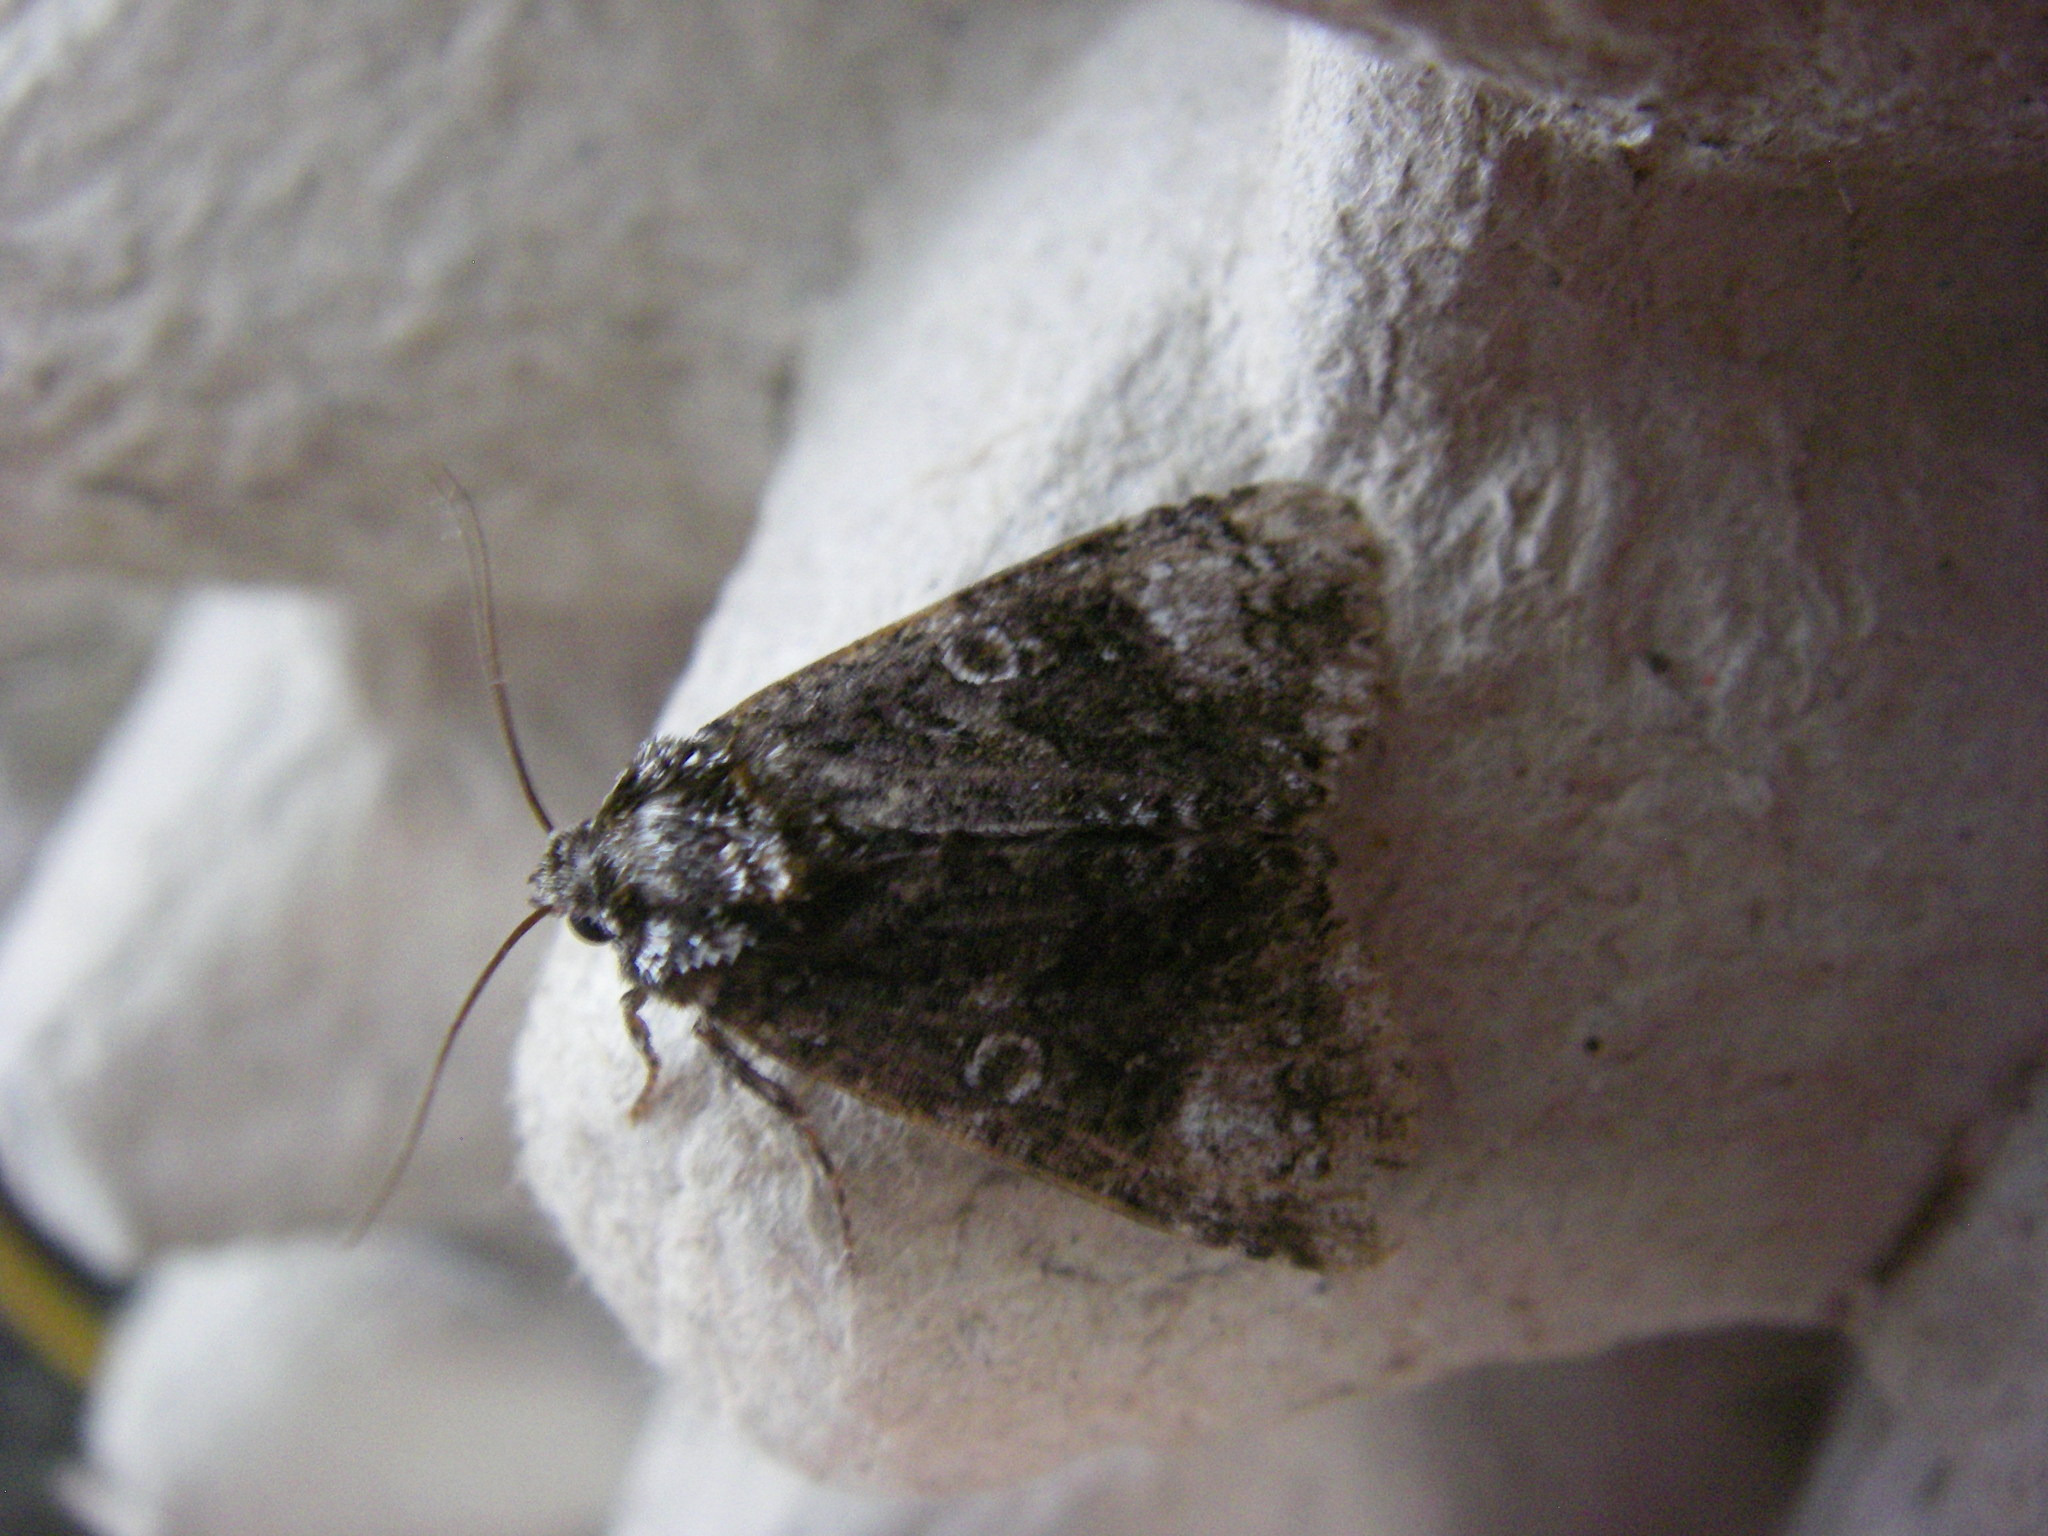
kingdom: Animalia
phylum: Arthropoda
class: Insecta
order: Lepidoptera
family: Noctuidae
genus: Craniophora
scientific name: Craniophora ligustri
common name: Coronet
